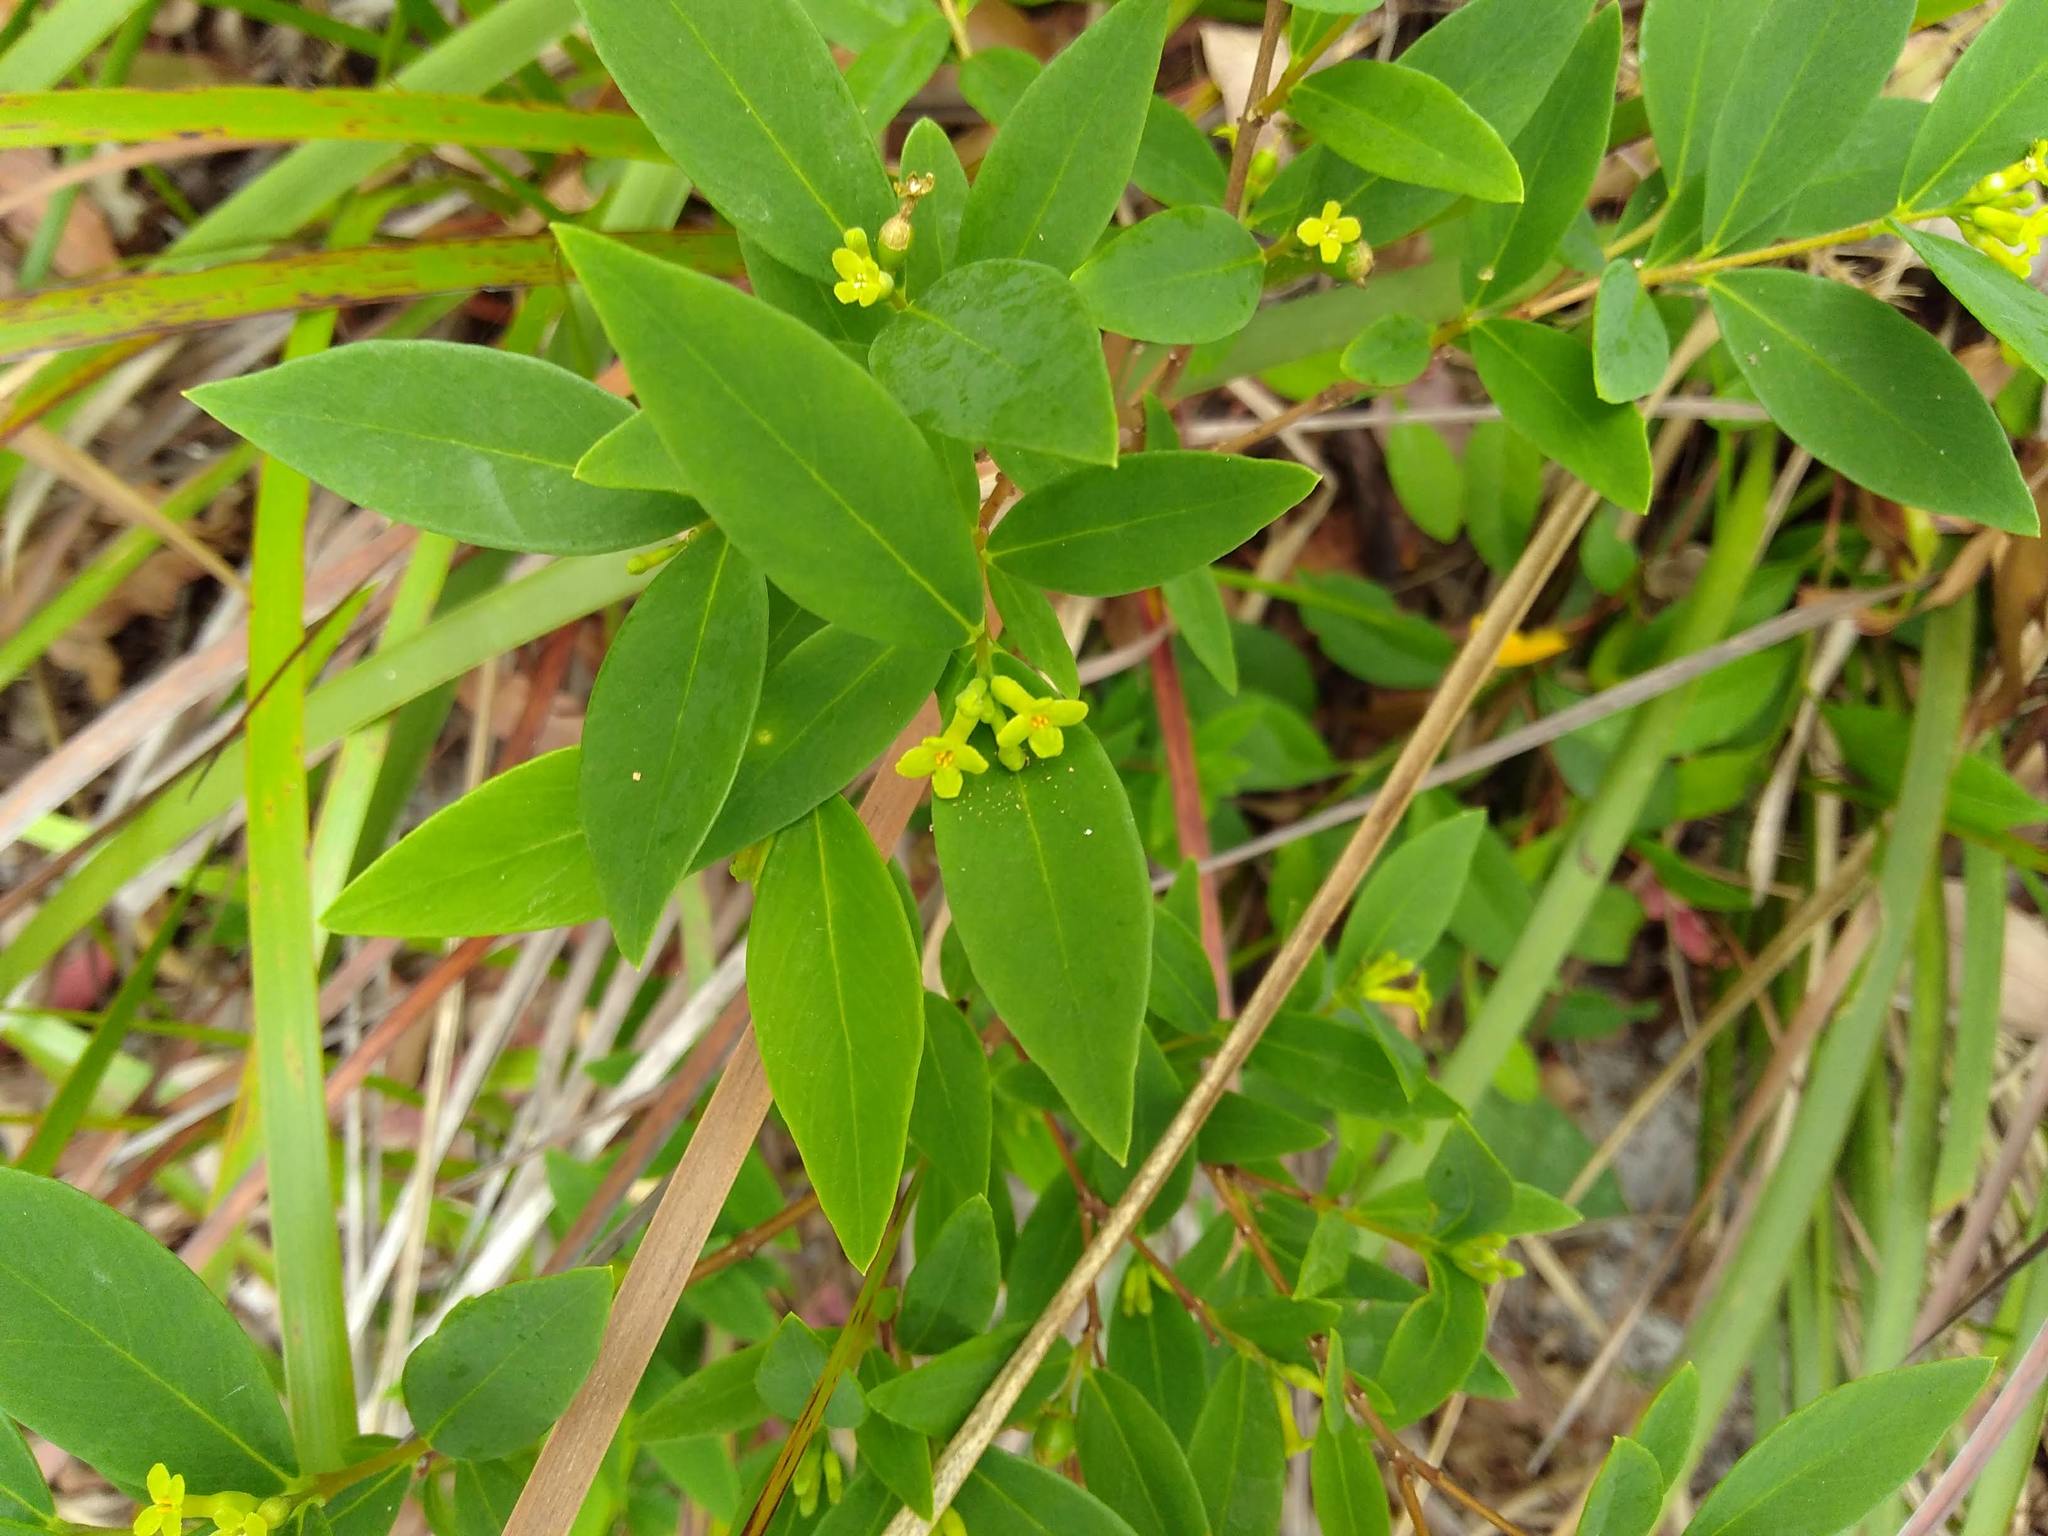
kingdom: Plantae
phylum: Tracheophyta
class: Magnoliopsida
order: Malvales
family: Thymelaeaceae
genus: Wikstroemia
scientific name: Wikstroemia indica
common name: Tiebush
